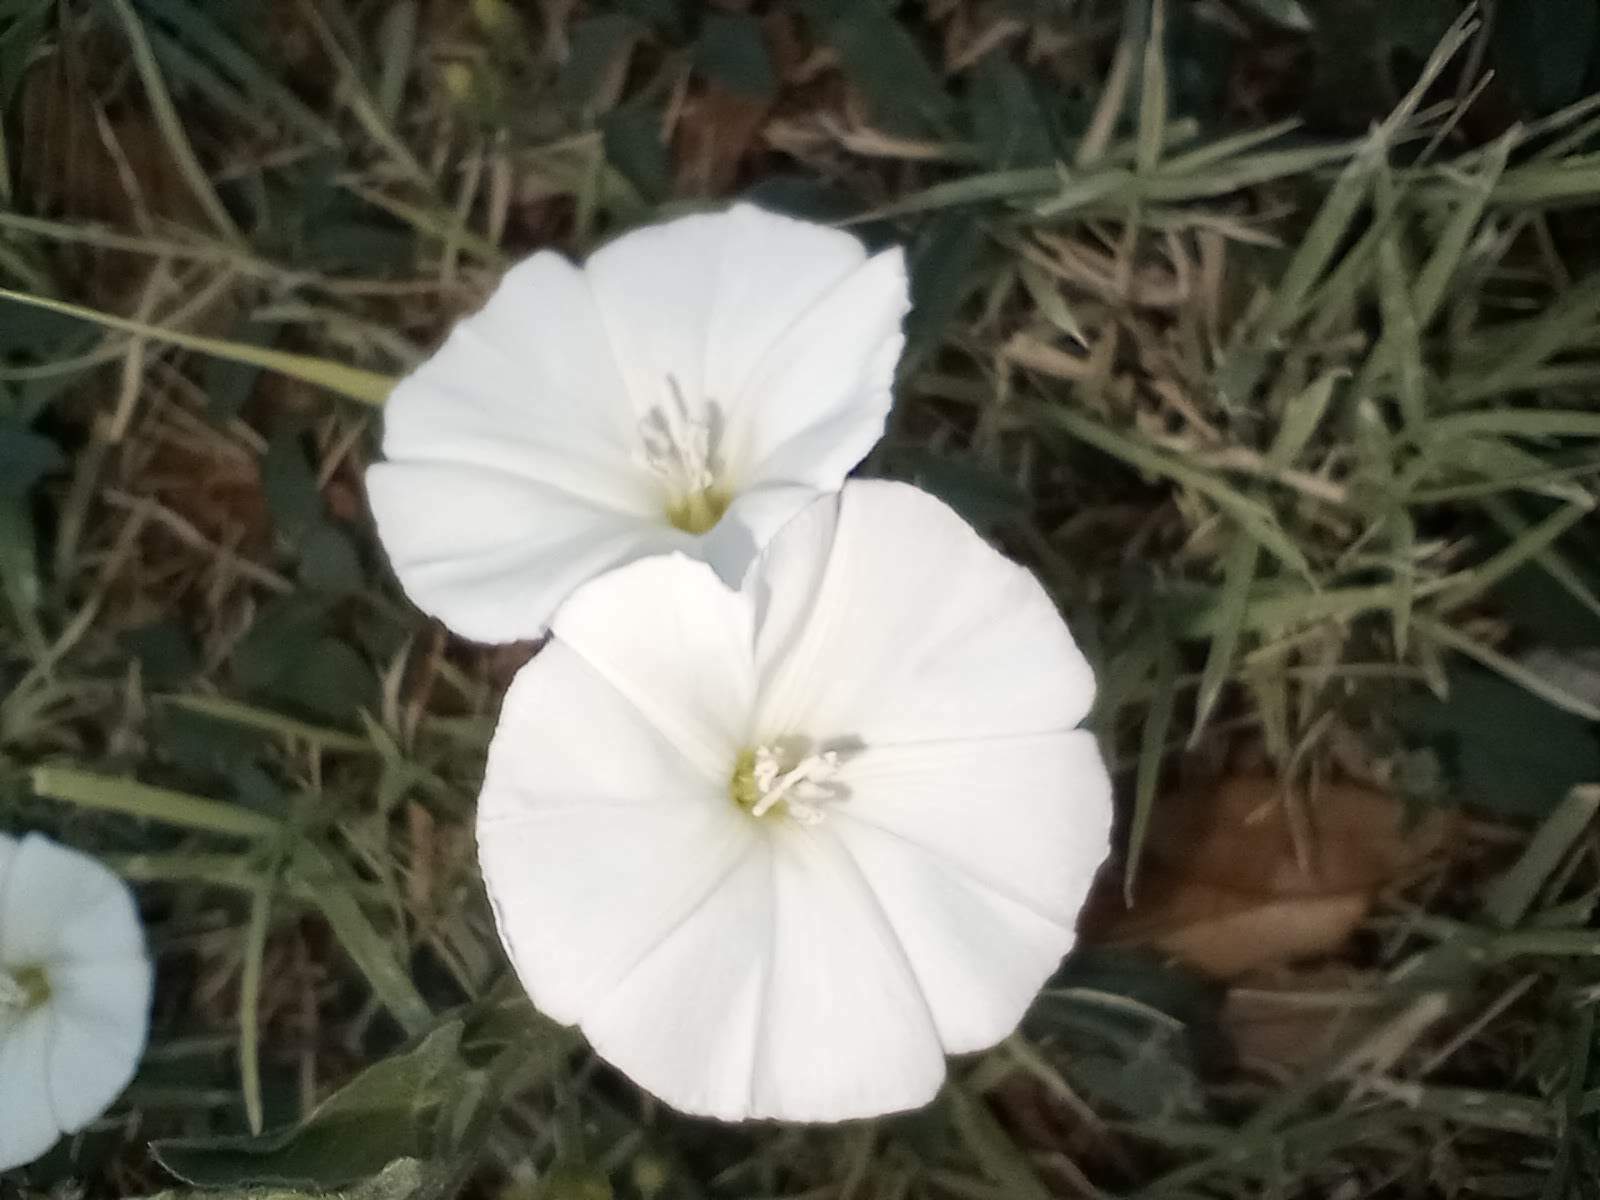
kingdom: Plantae
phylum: Tracheophyta
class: Magnoliopsida
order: Solanales
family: Convolvulaceae
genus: Convolvulus
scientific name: Convolvulus arvensis
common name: Field bindweed
